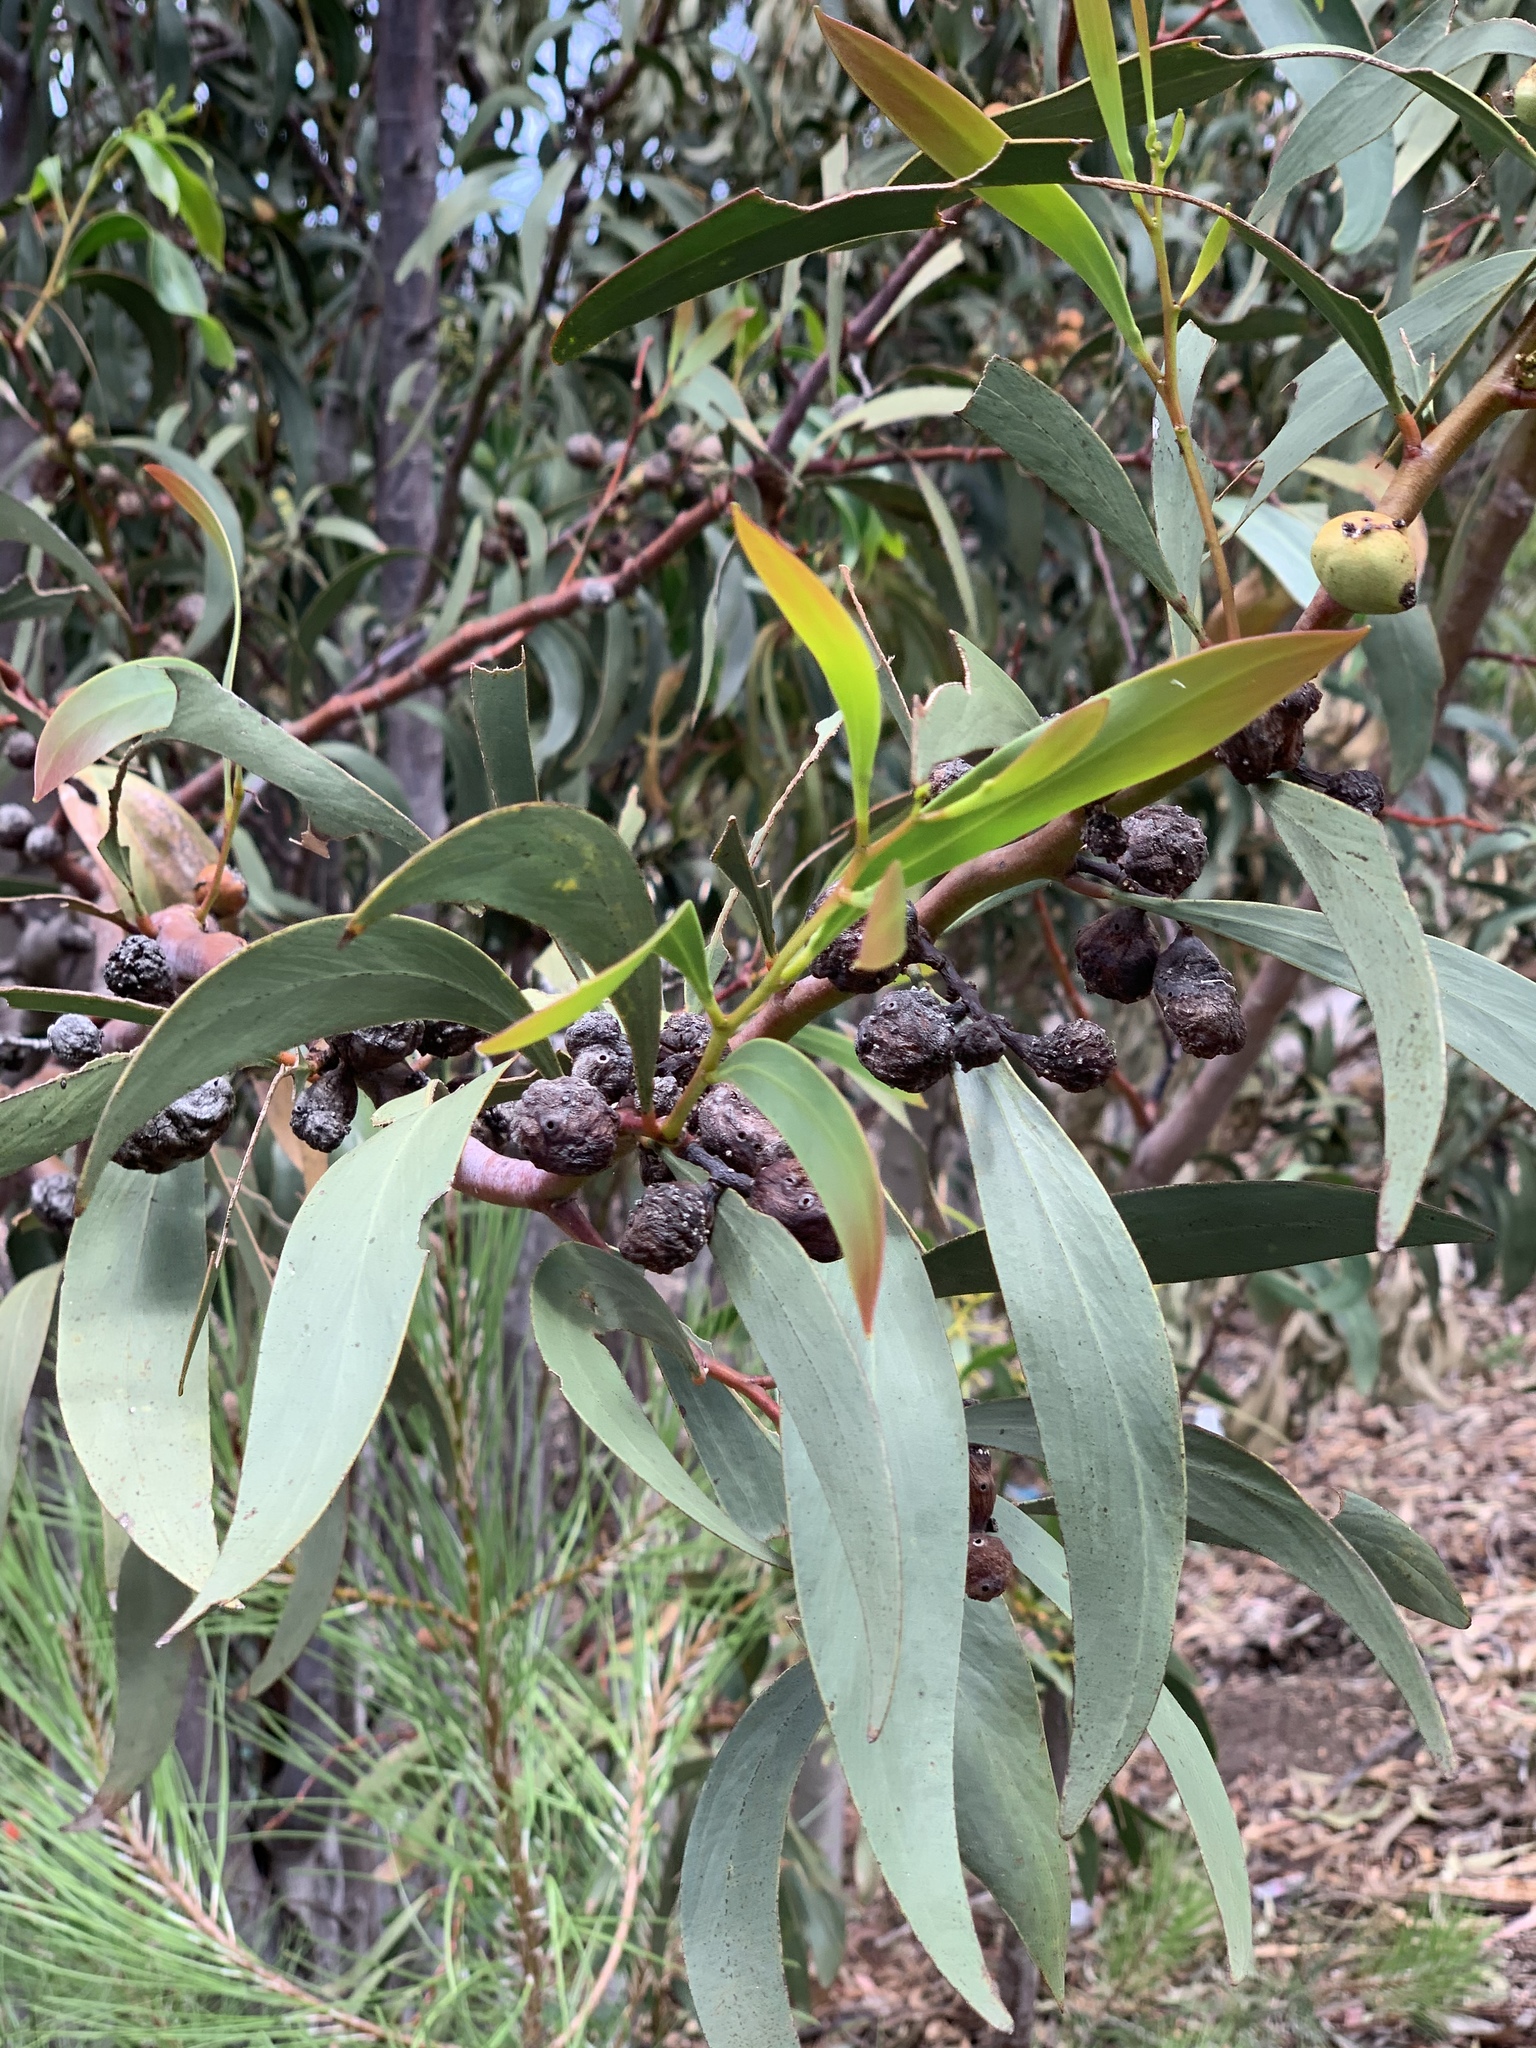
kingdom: Plantae
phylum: Tracheophyta
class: Magnoliopsida
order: Fabales
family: Fabaceae
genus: Acacia
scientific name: Acacia pycnantha
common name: Golden wattle
